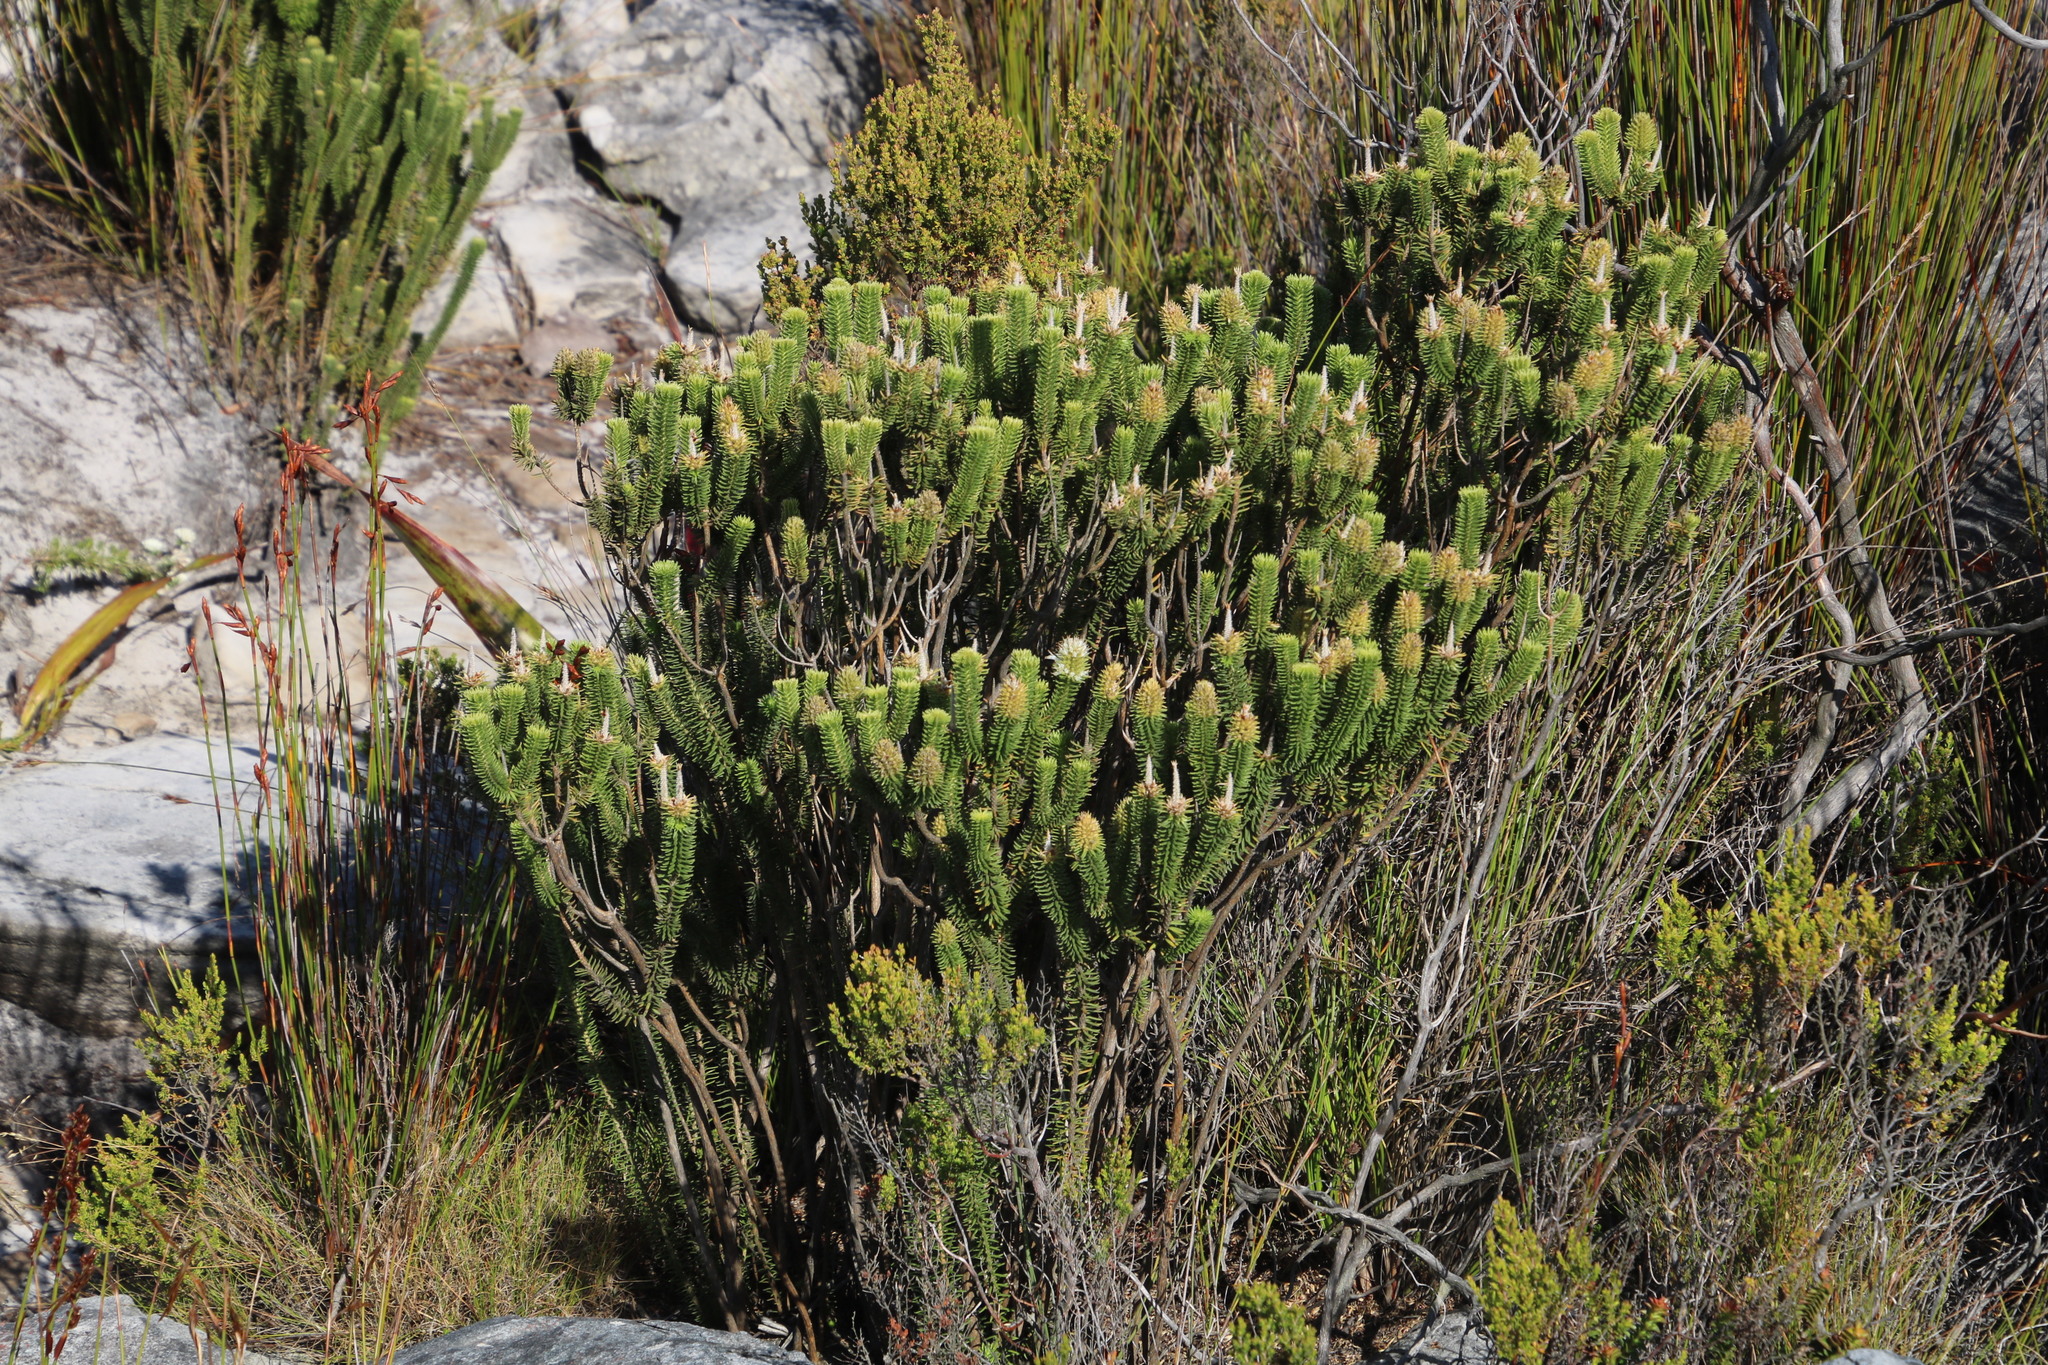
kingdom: Plantae
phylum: Tracheophyta
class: Magnoliopsida
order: Lamiales
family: Stilbaceae
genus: Stilbe
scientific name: Stilbe vestita
